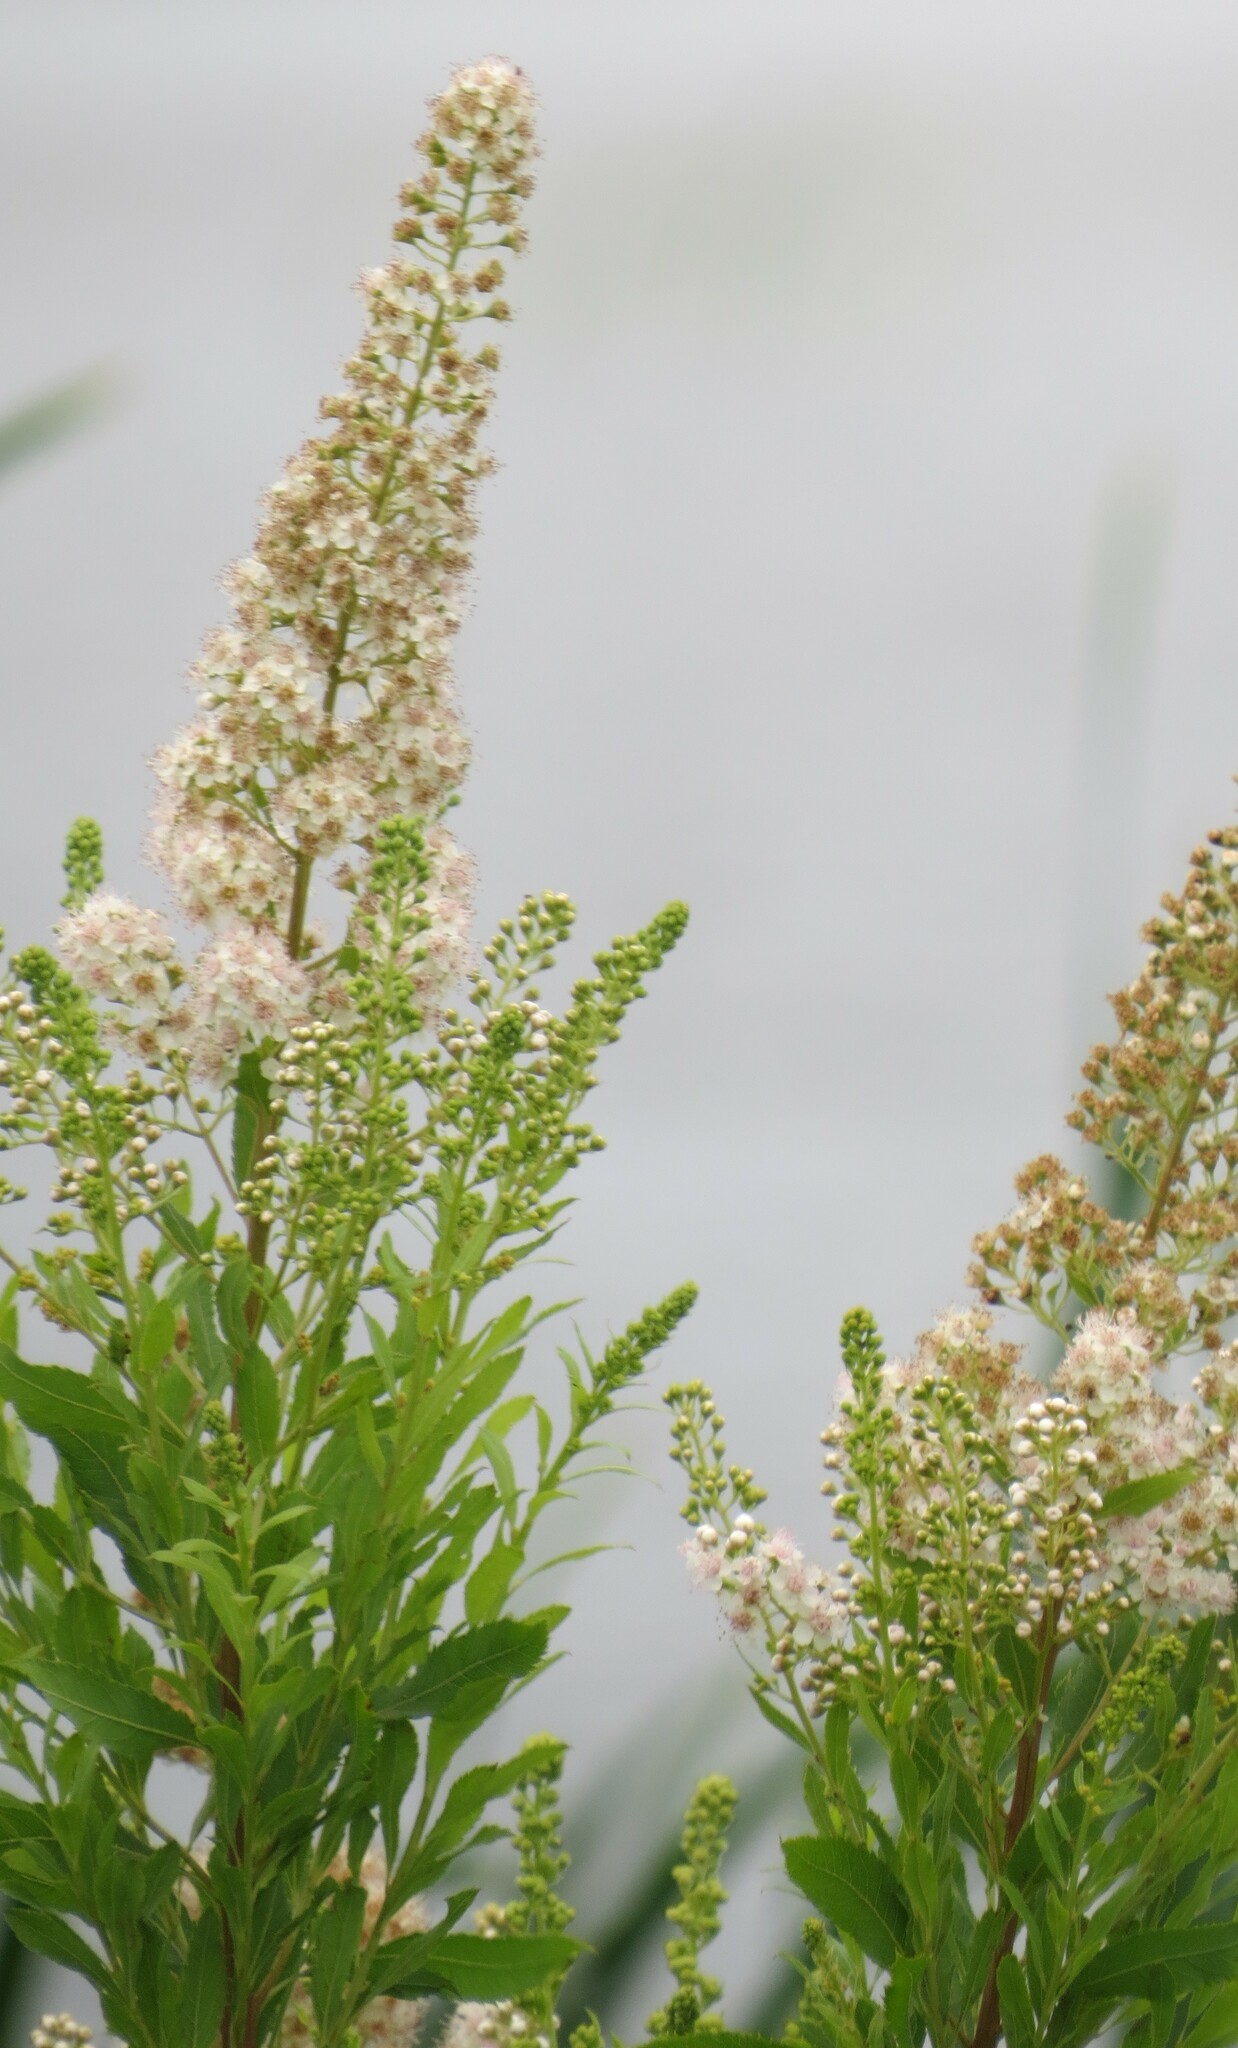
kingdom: Plantae
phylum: Tracheophyta
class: Magnoliopsida
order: Rosales
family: Rosaceae
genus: Spiraea
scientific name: Spiraea alba
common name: Pale bridewort
